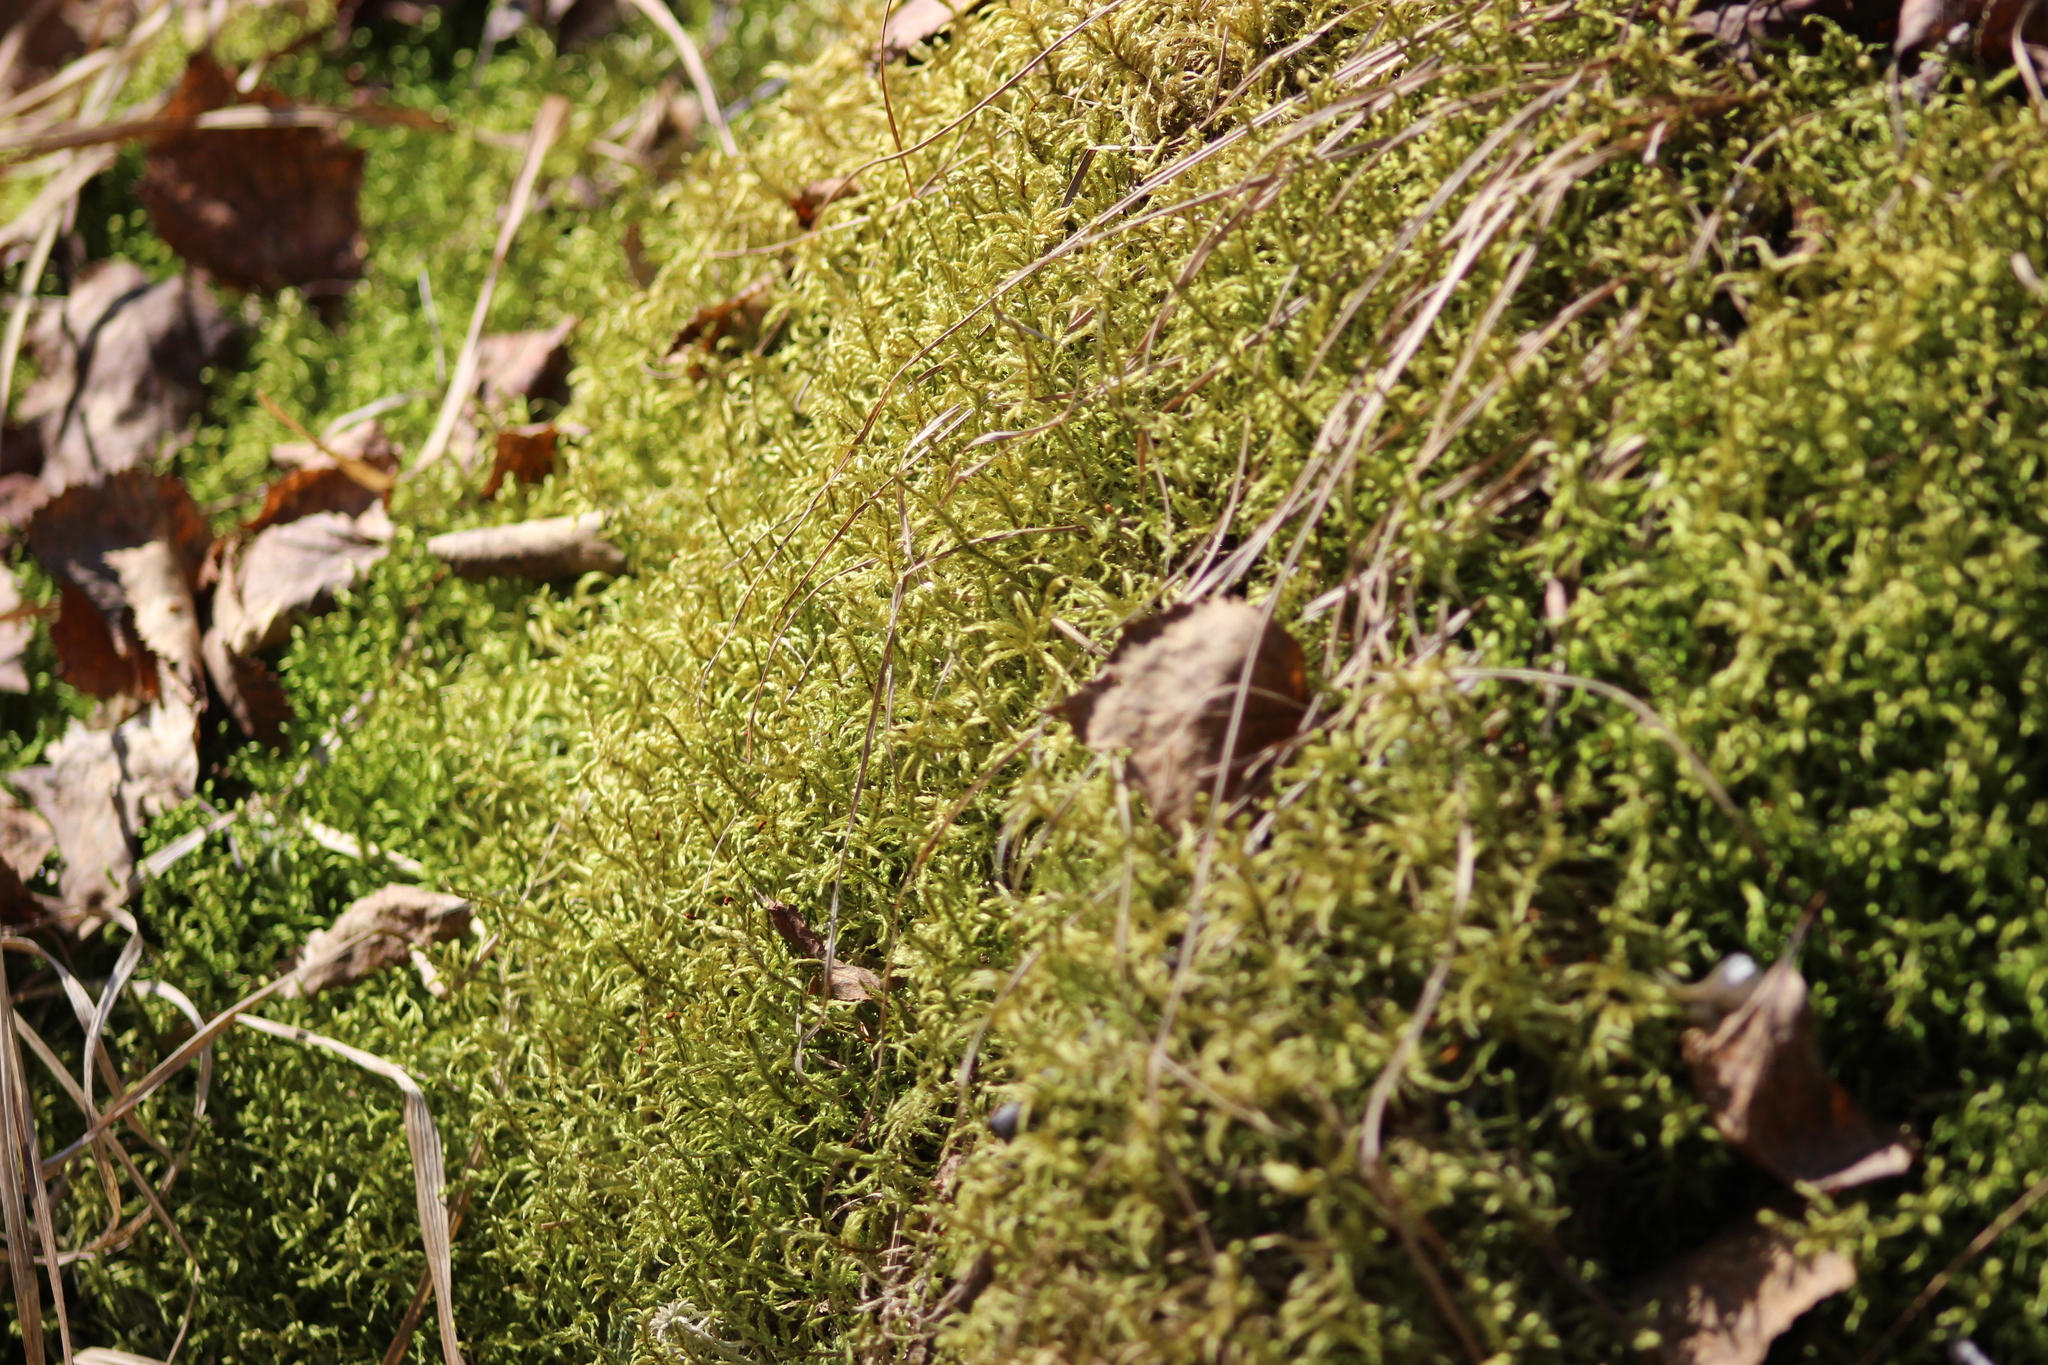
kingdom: Plantae
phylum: Bryophyta
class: Bryopsida
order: Hypnales
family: Hylocomiaceae
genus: Pleurozium
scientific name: Pleurozium schreberi
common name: Red-stemmed feather moss
